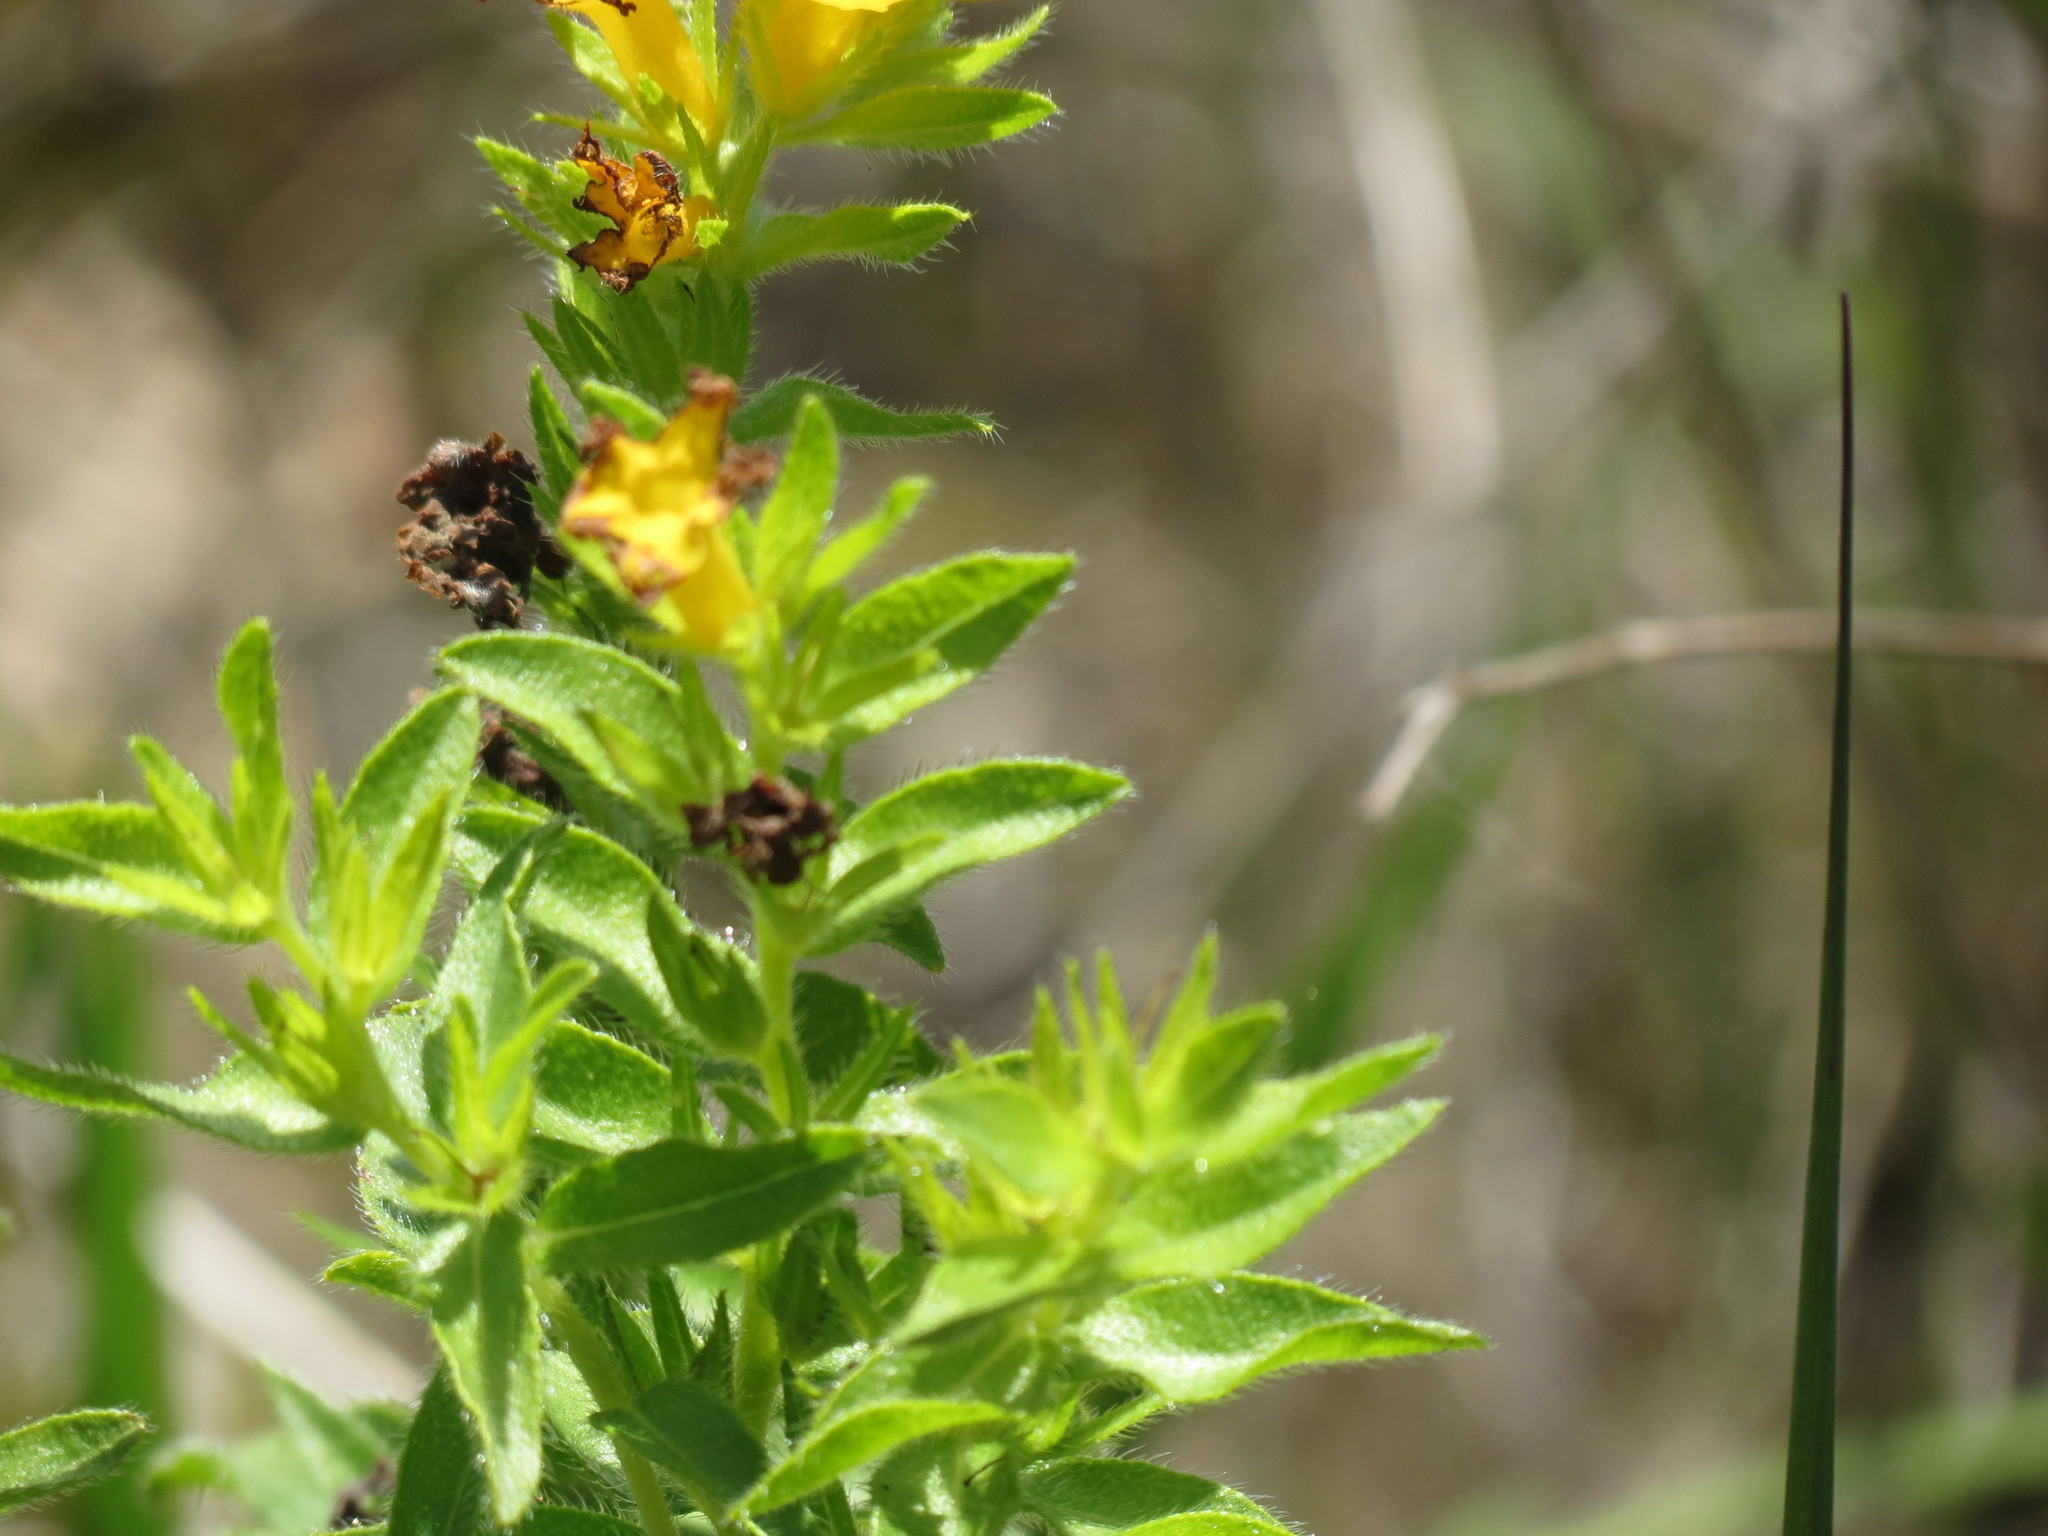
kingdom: Plantae
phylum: Tracheophyta
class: Magnoliopsida
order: Boraginales
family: Boraginaceae
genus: Lithospermum
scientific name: Lithospermum caroliniense
